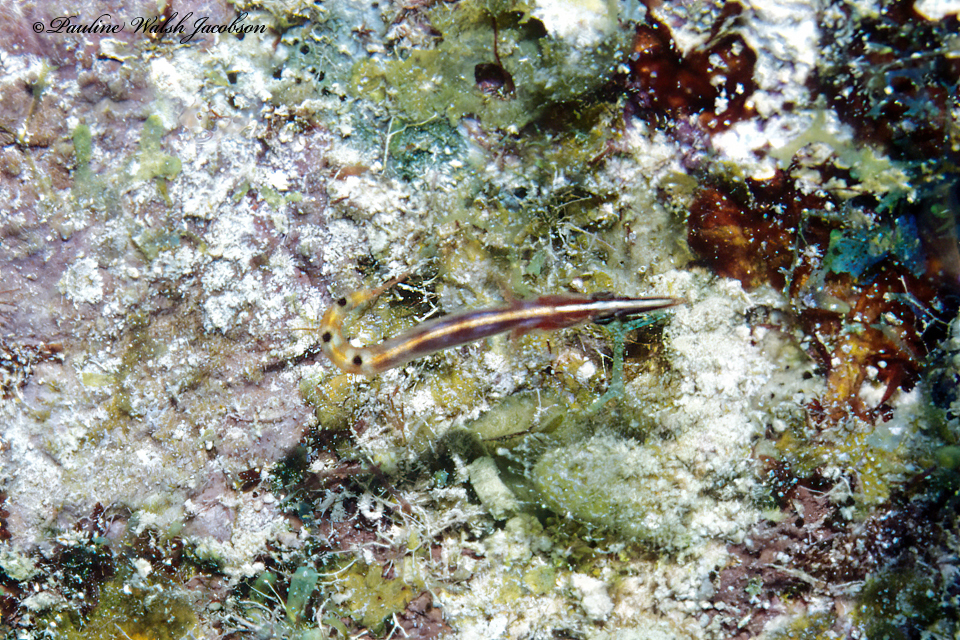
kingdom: Animalia
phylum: Chordata
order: Perciformes
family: Chaenopsidae
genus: Lucayablennius
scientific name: Lucayablennius zingaro
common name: Arrow blenny
